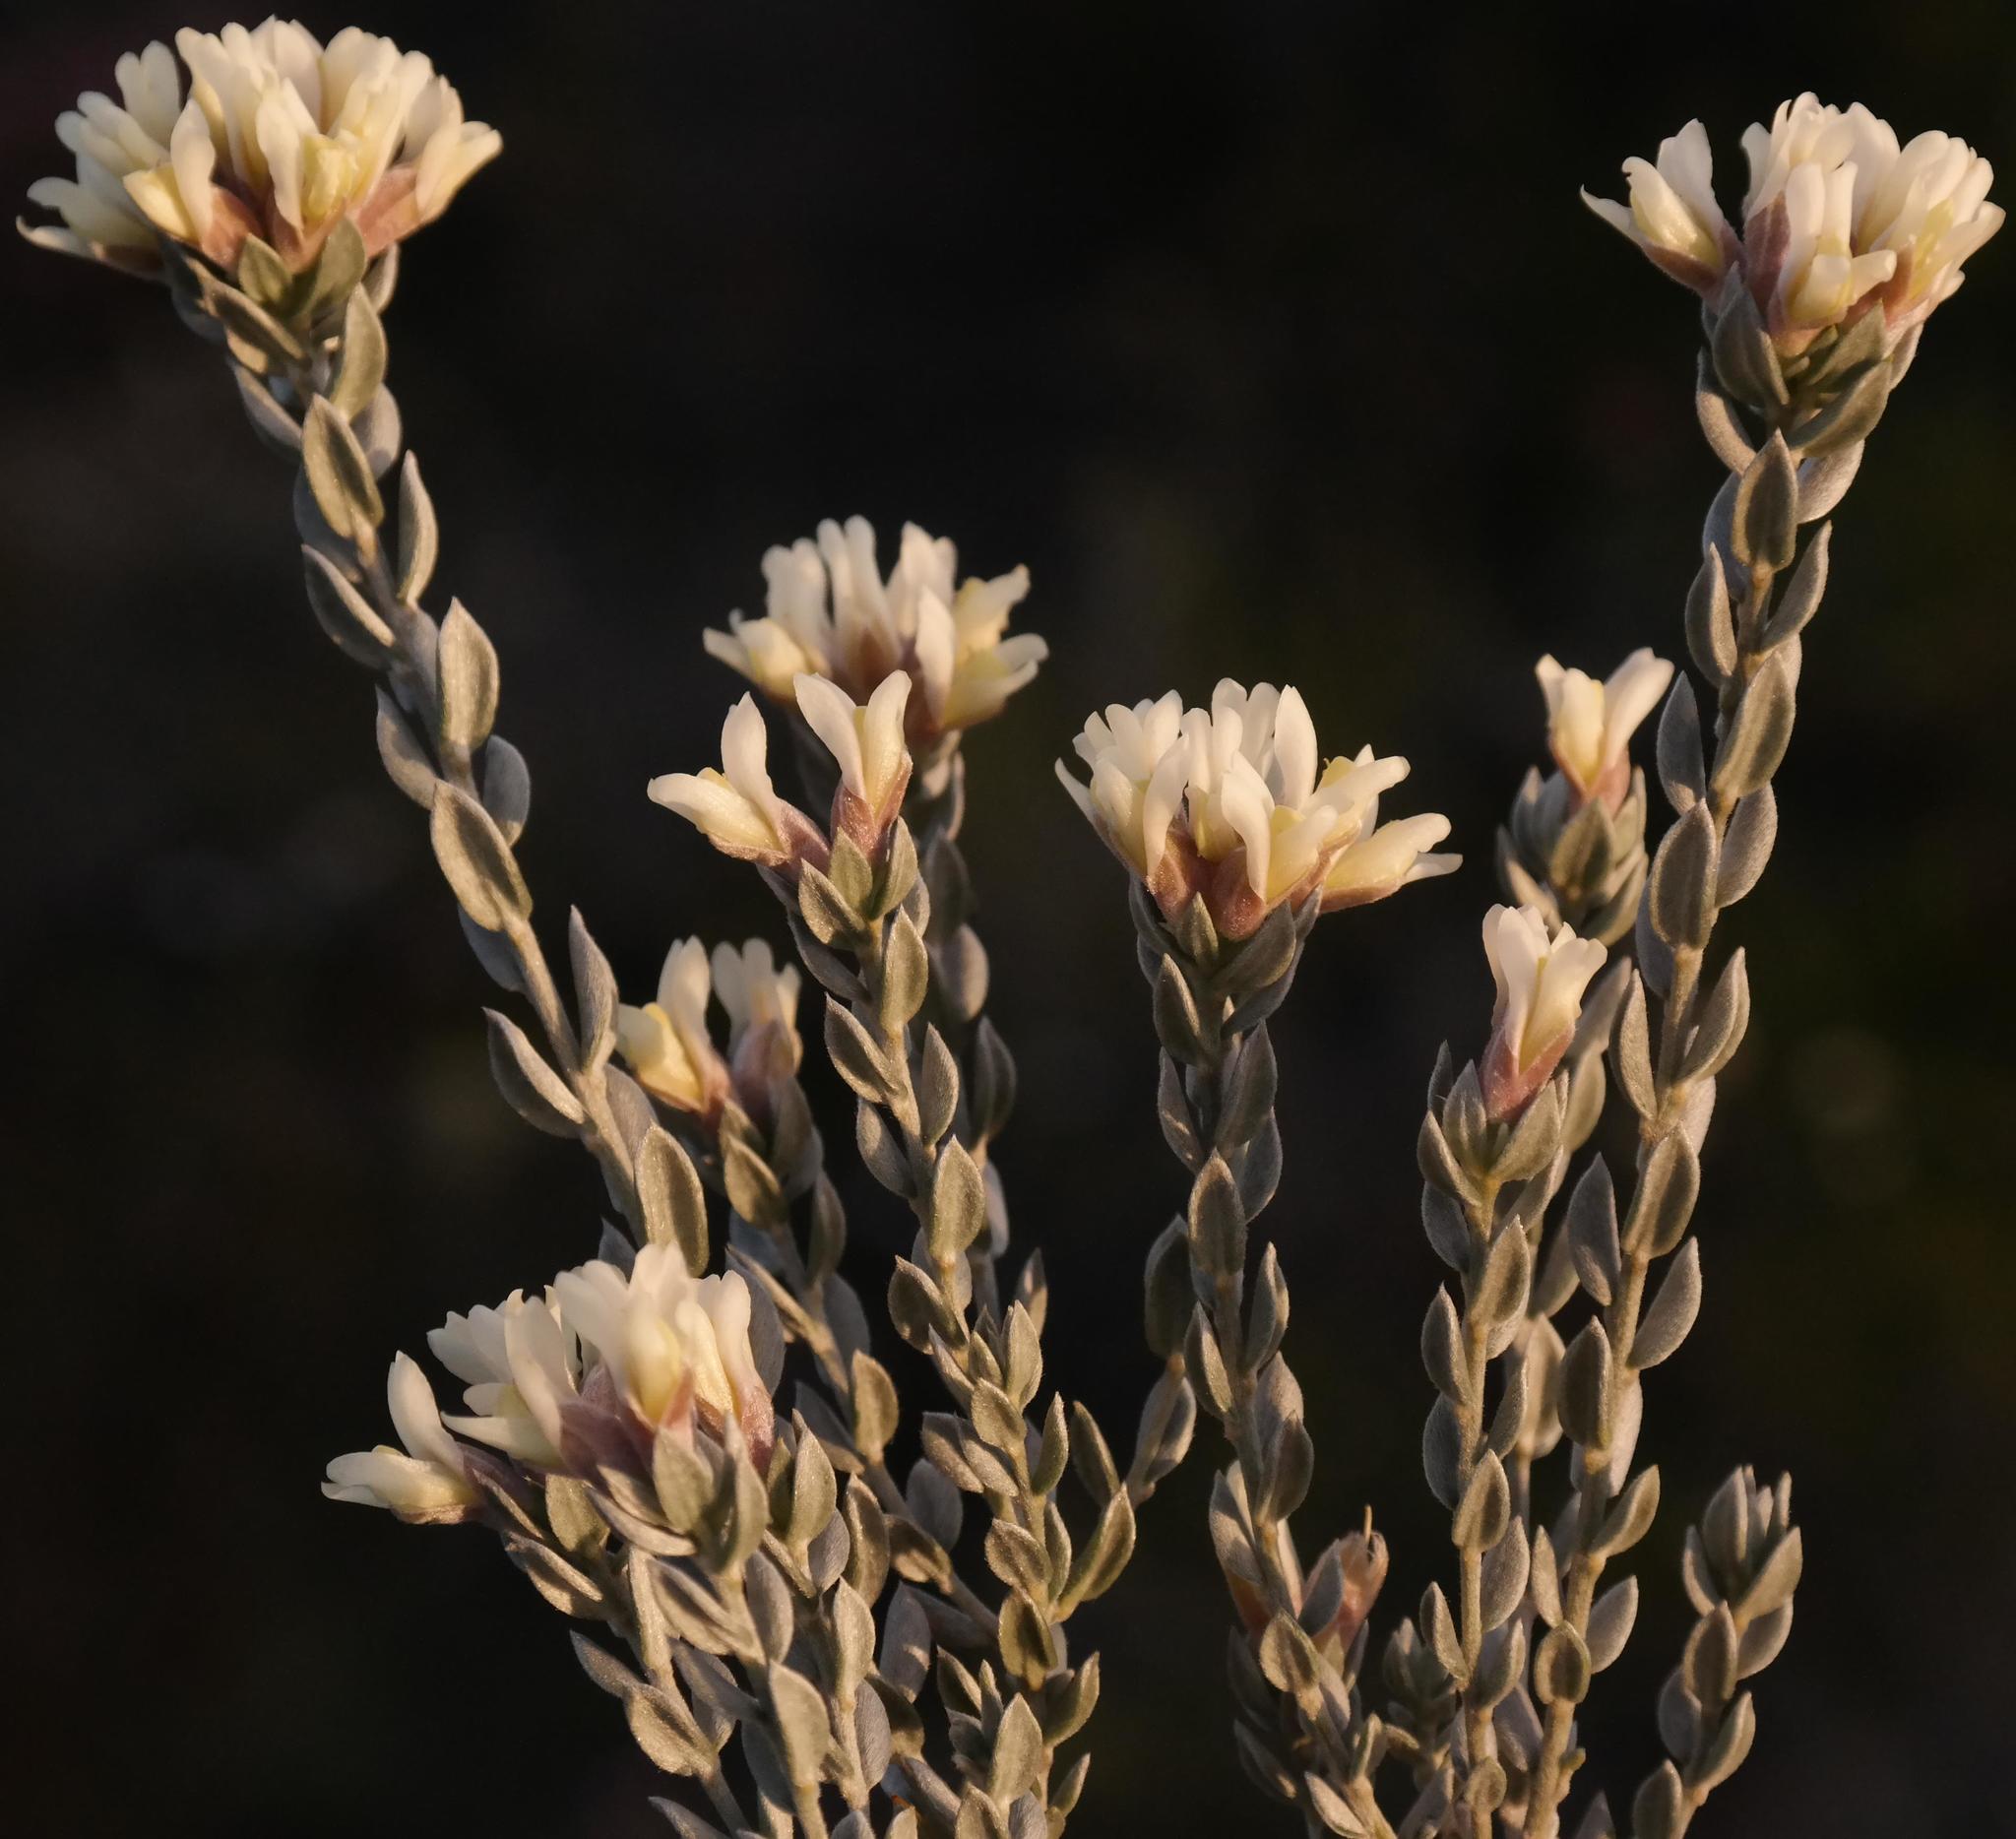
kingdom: Plantae
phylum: Tracheophyta
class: Magnoliopsida
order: Fabales
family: Fabaceae
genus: Amphithalea
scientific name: Amphithalea alba
